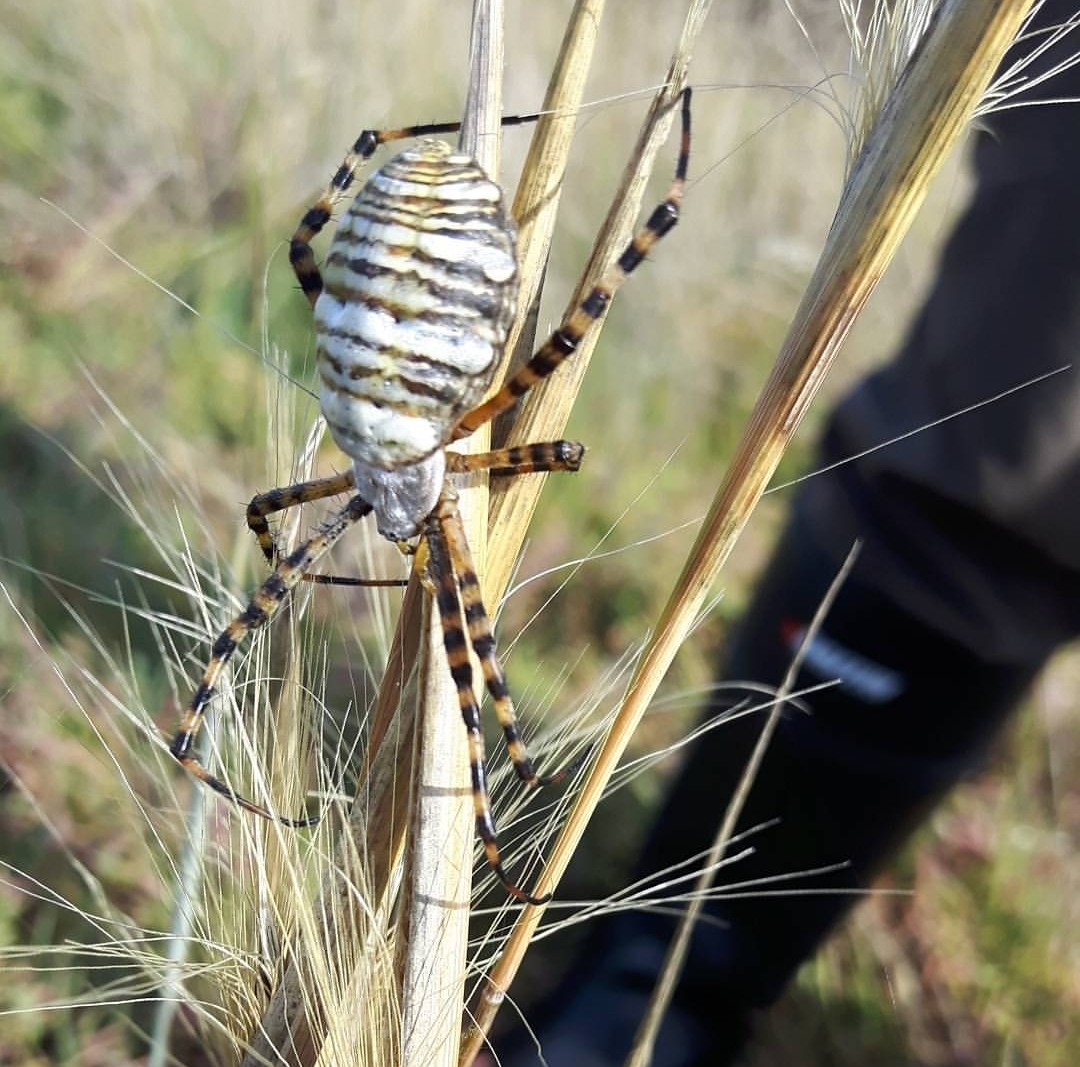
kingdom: Animalia
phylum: Arthropoda
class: Arachnida
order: Araneae
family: Araneidae
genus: Argiope
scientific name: Argiope trifasciata
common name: Banded garden spider
